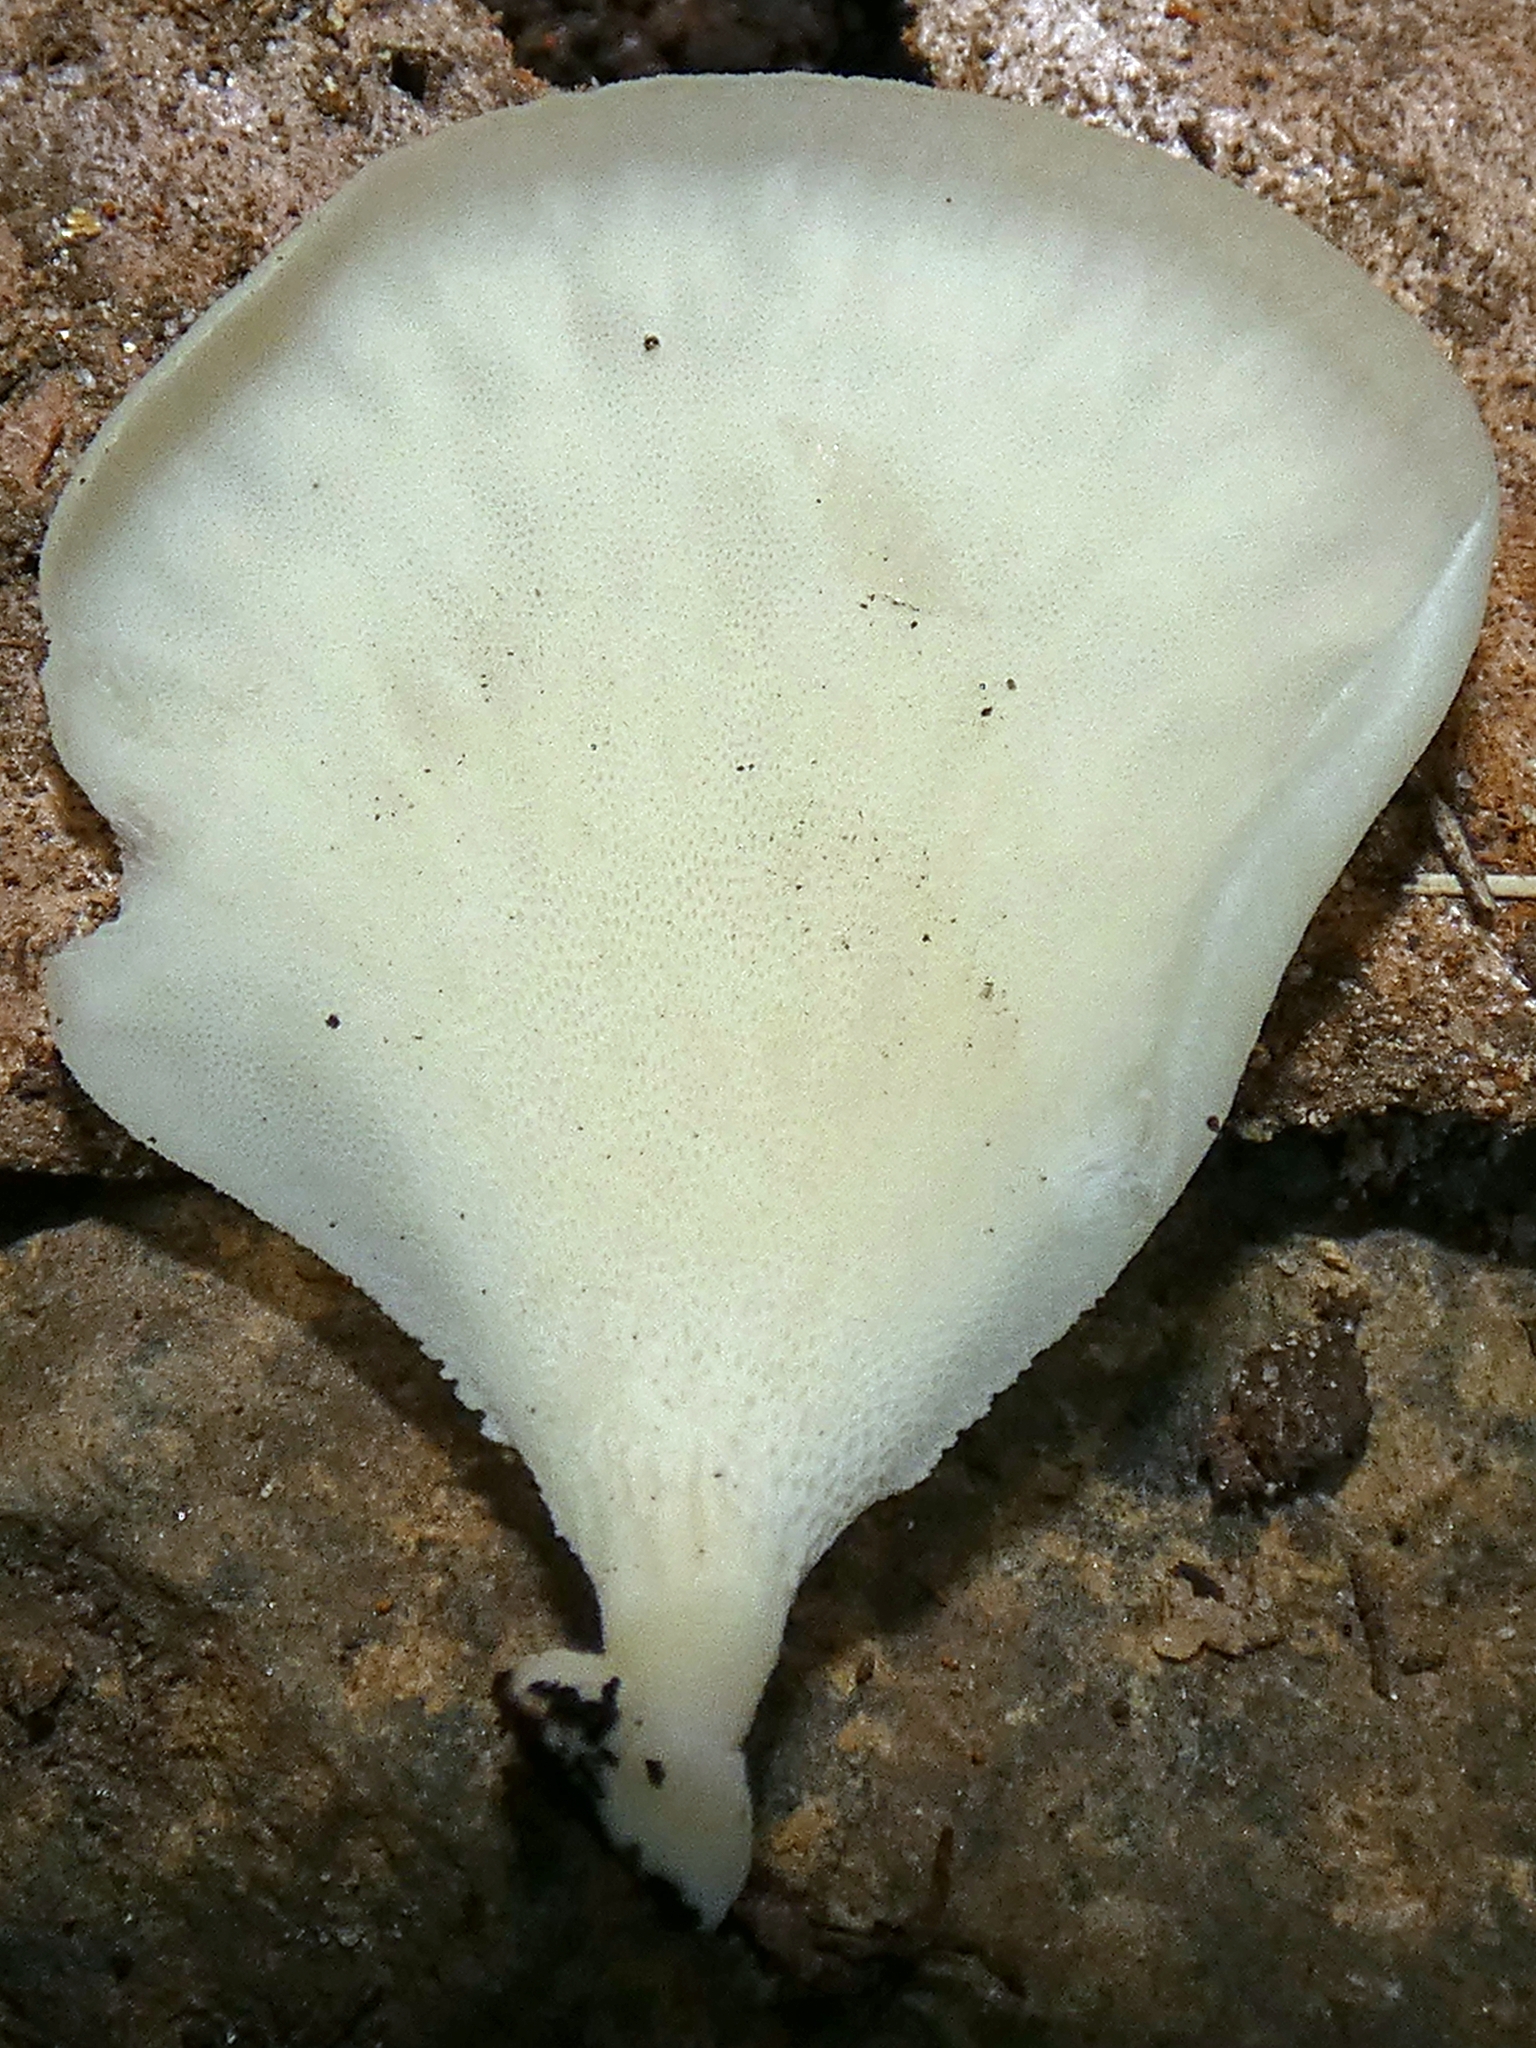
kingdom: Fungi
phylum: Basidiomycota
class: Agaricomycetes
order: Polyporales
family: Polyporaceae
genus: Royoporus
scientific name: Royoporus spatulatus
